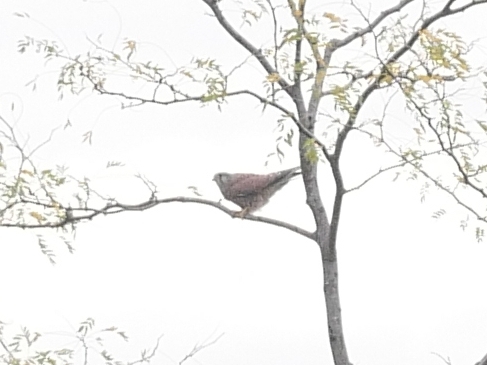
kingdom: Animalia
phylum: Chordata
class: Aves
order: Falconiformes
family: Falconidae
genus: Falco
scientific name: Falco tinnunculus
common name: Common kestrel
